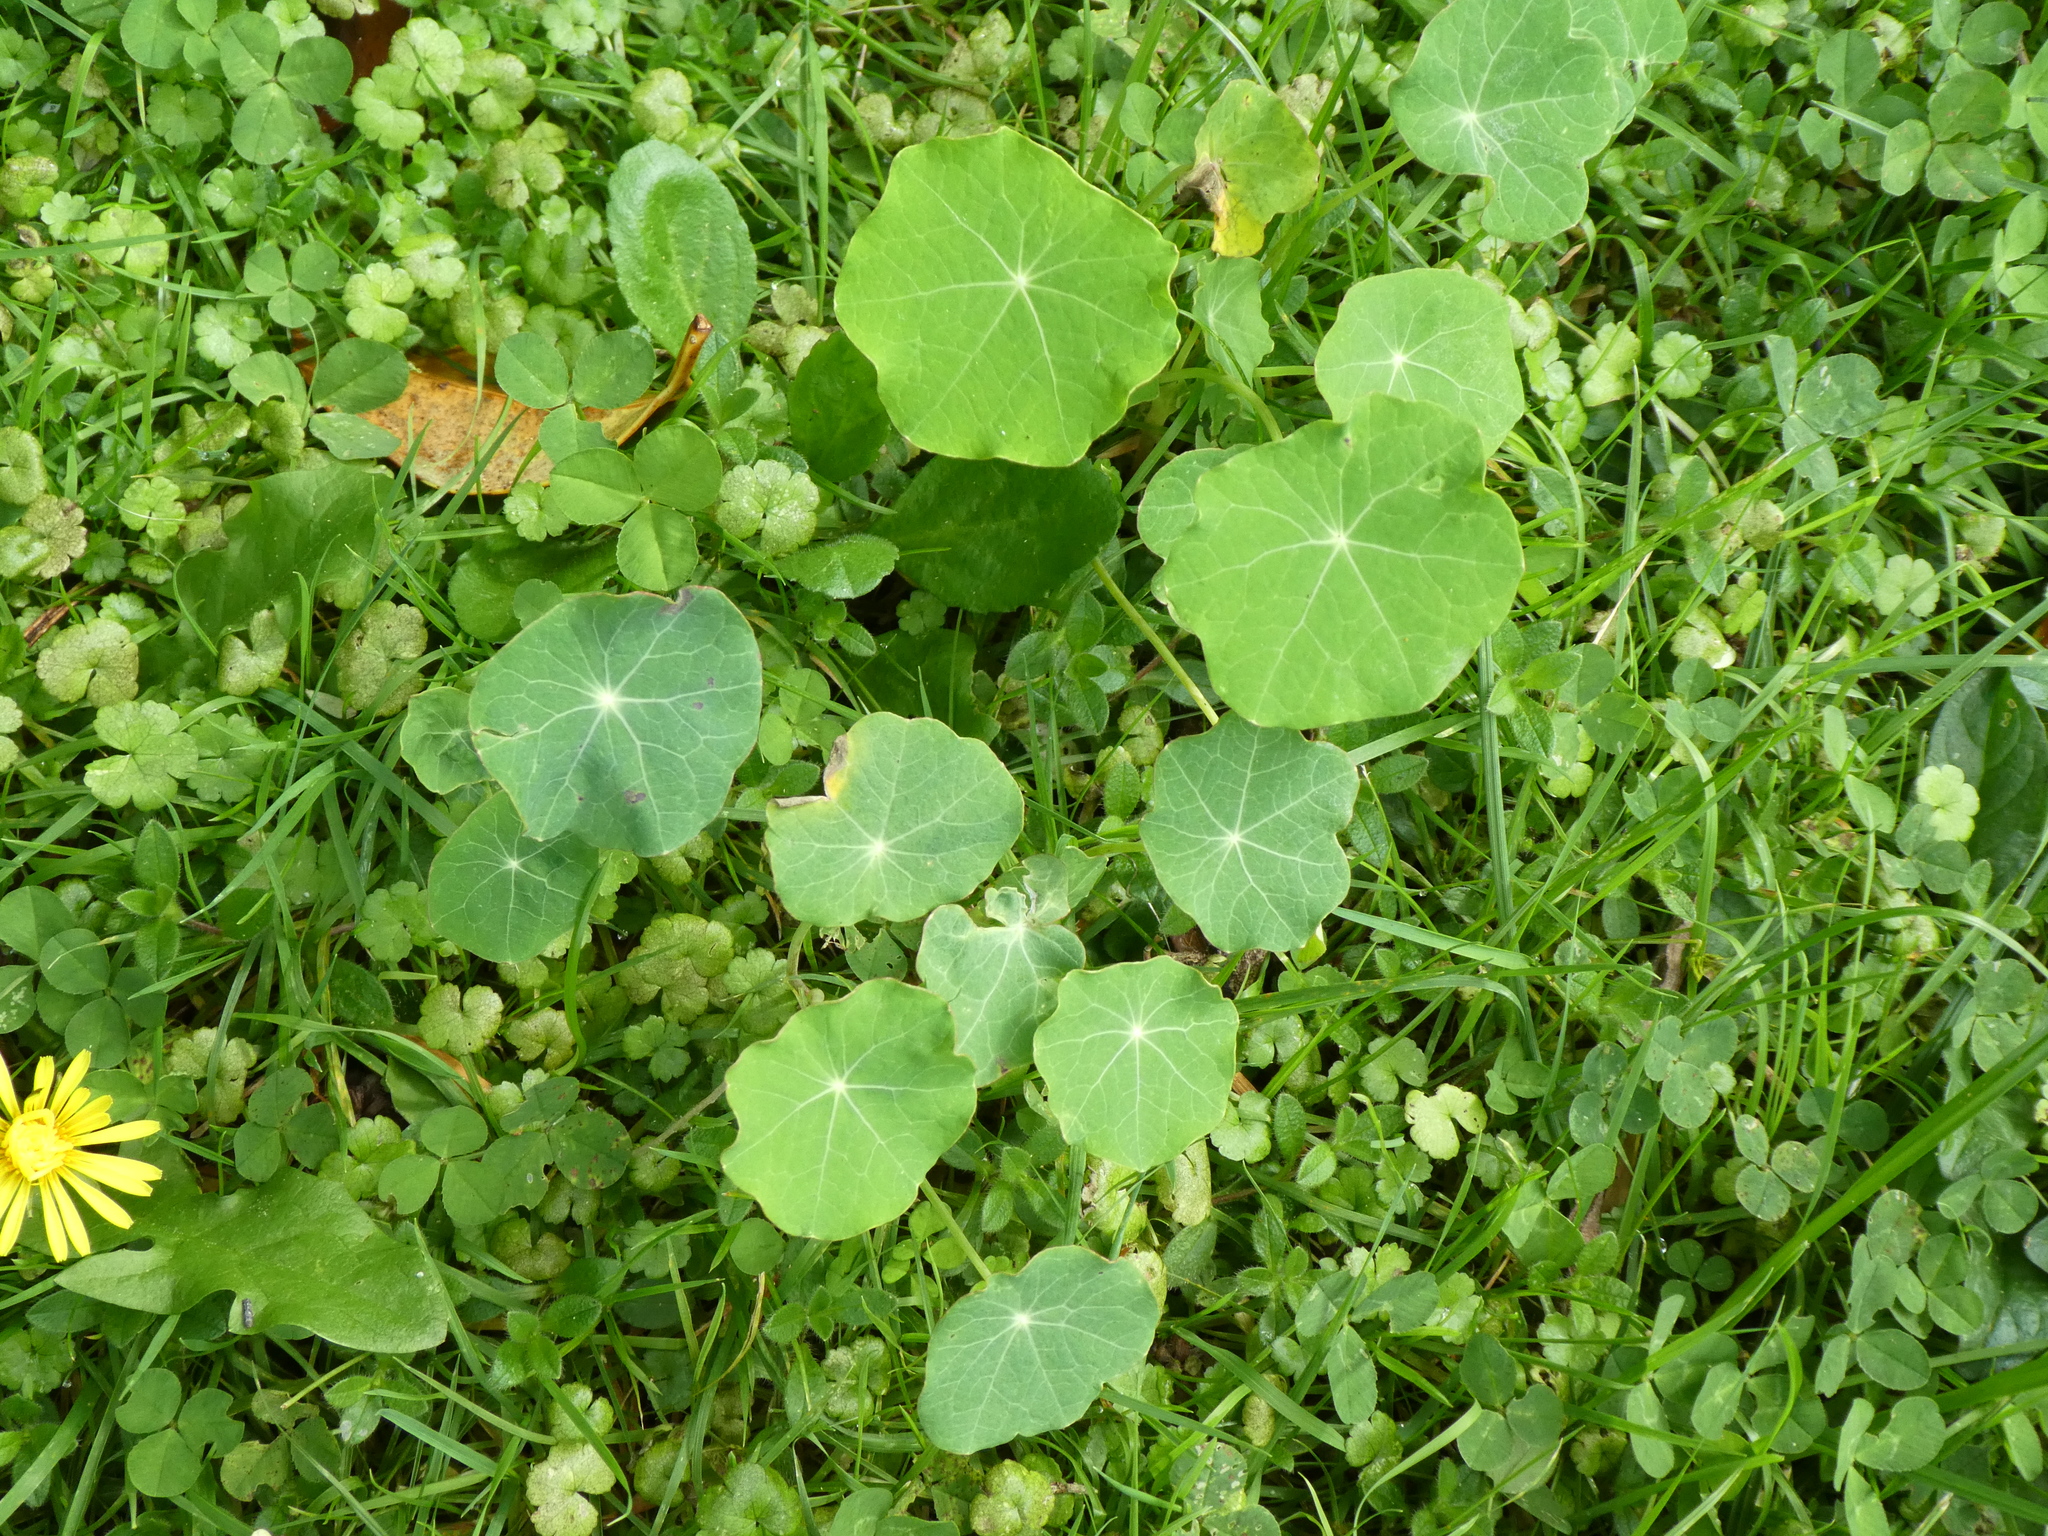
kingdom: Plantae
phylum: Tracheophyta
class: Magnoliopsida
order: Brassicales
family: Tropaeolaceae
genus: Tropaeolum
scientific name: Tropaeolum majus
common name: Nasturtium
